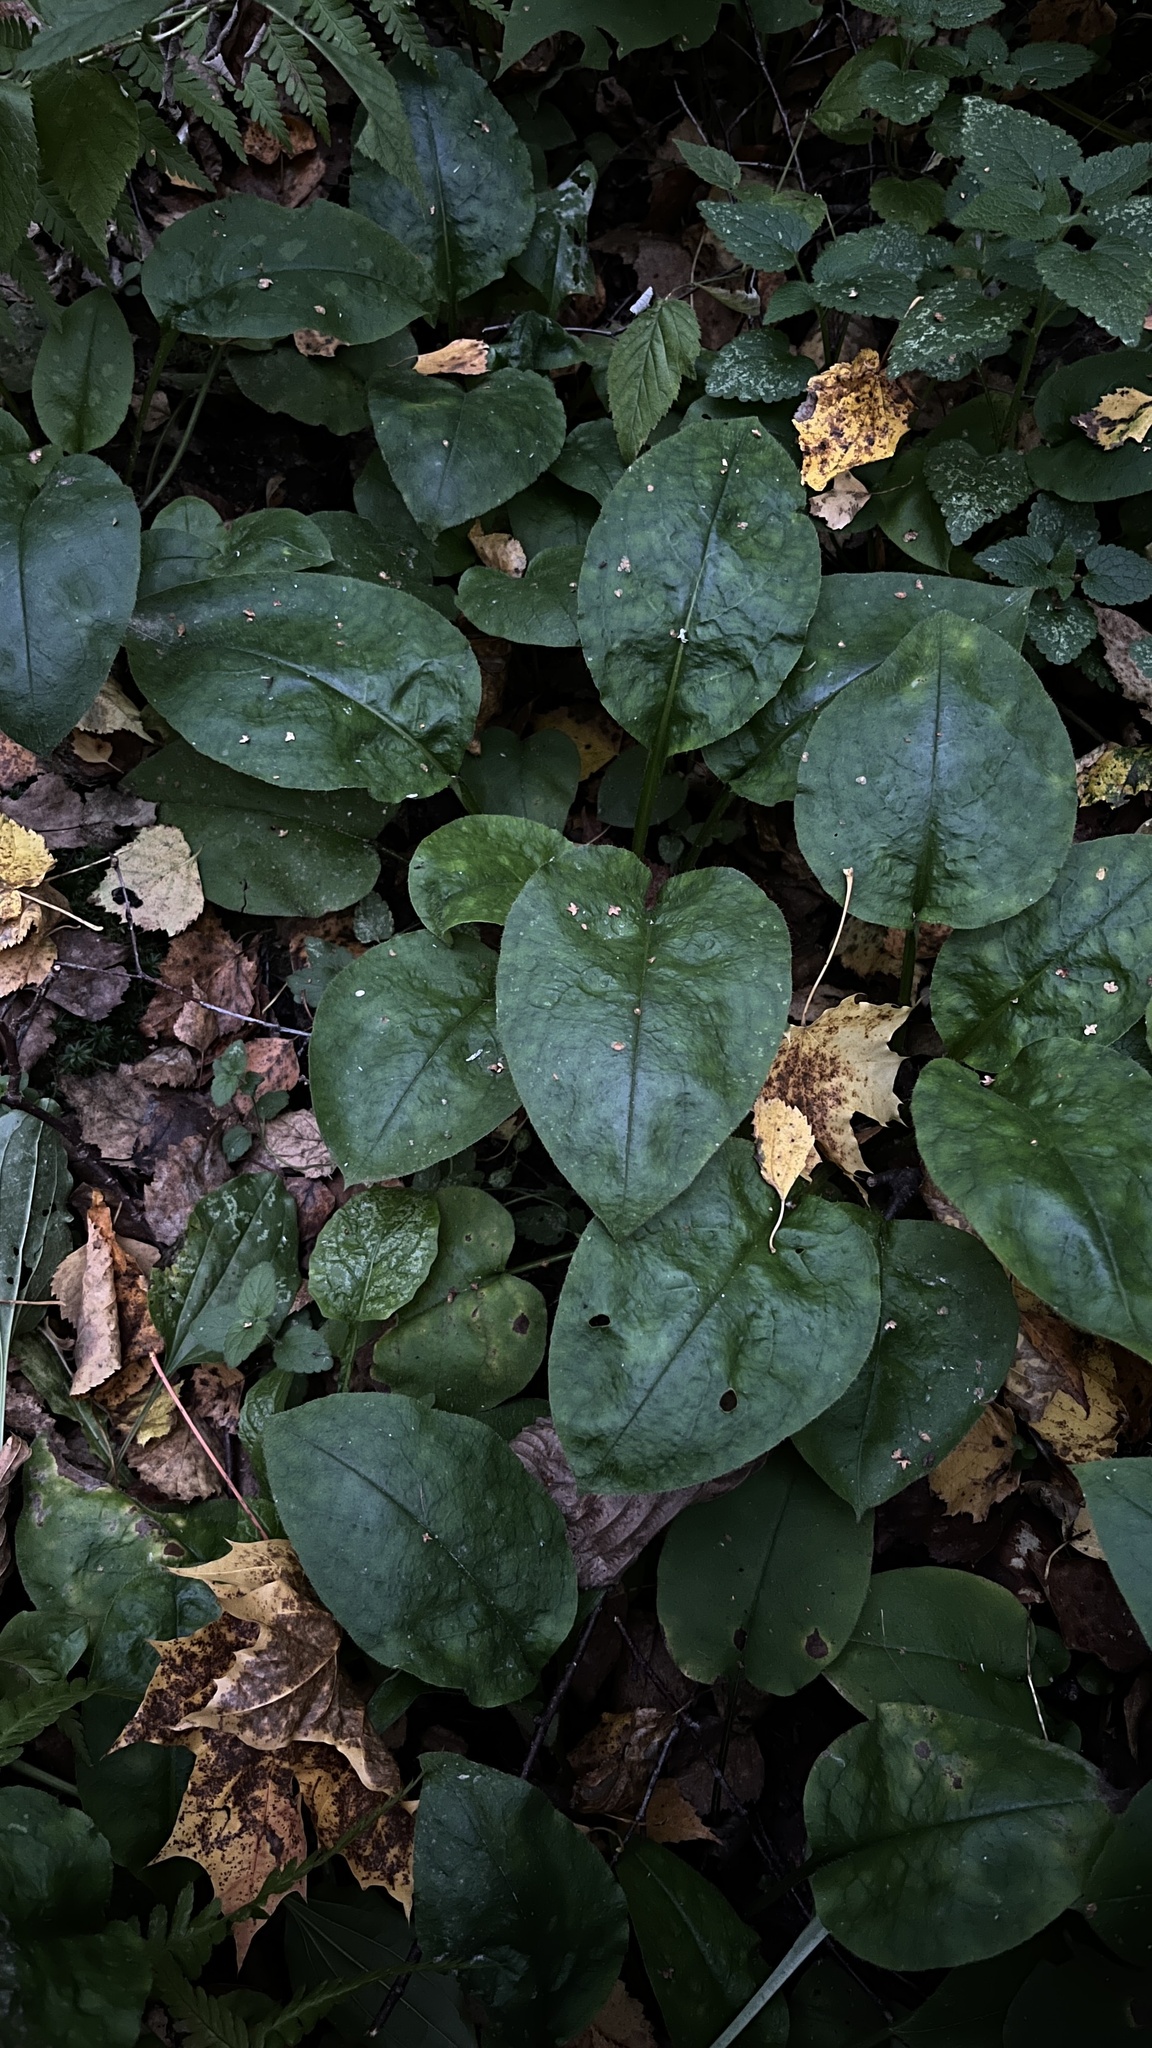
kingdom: Plantae
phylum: Tracheophyta
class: Magnoliopsida
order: Boraginales
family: Boraginaceae
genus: Pulmonaria
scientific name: Pulmonaria obscura
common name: Suffolk lungwort
